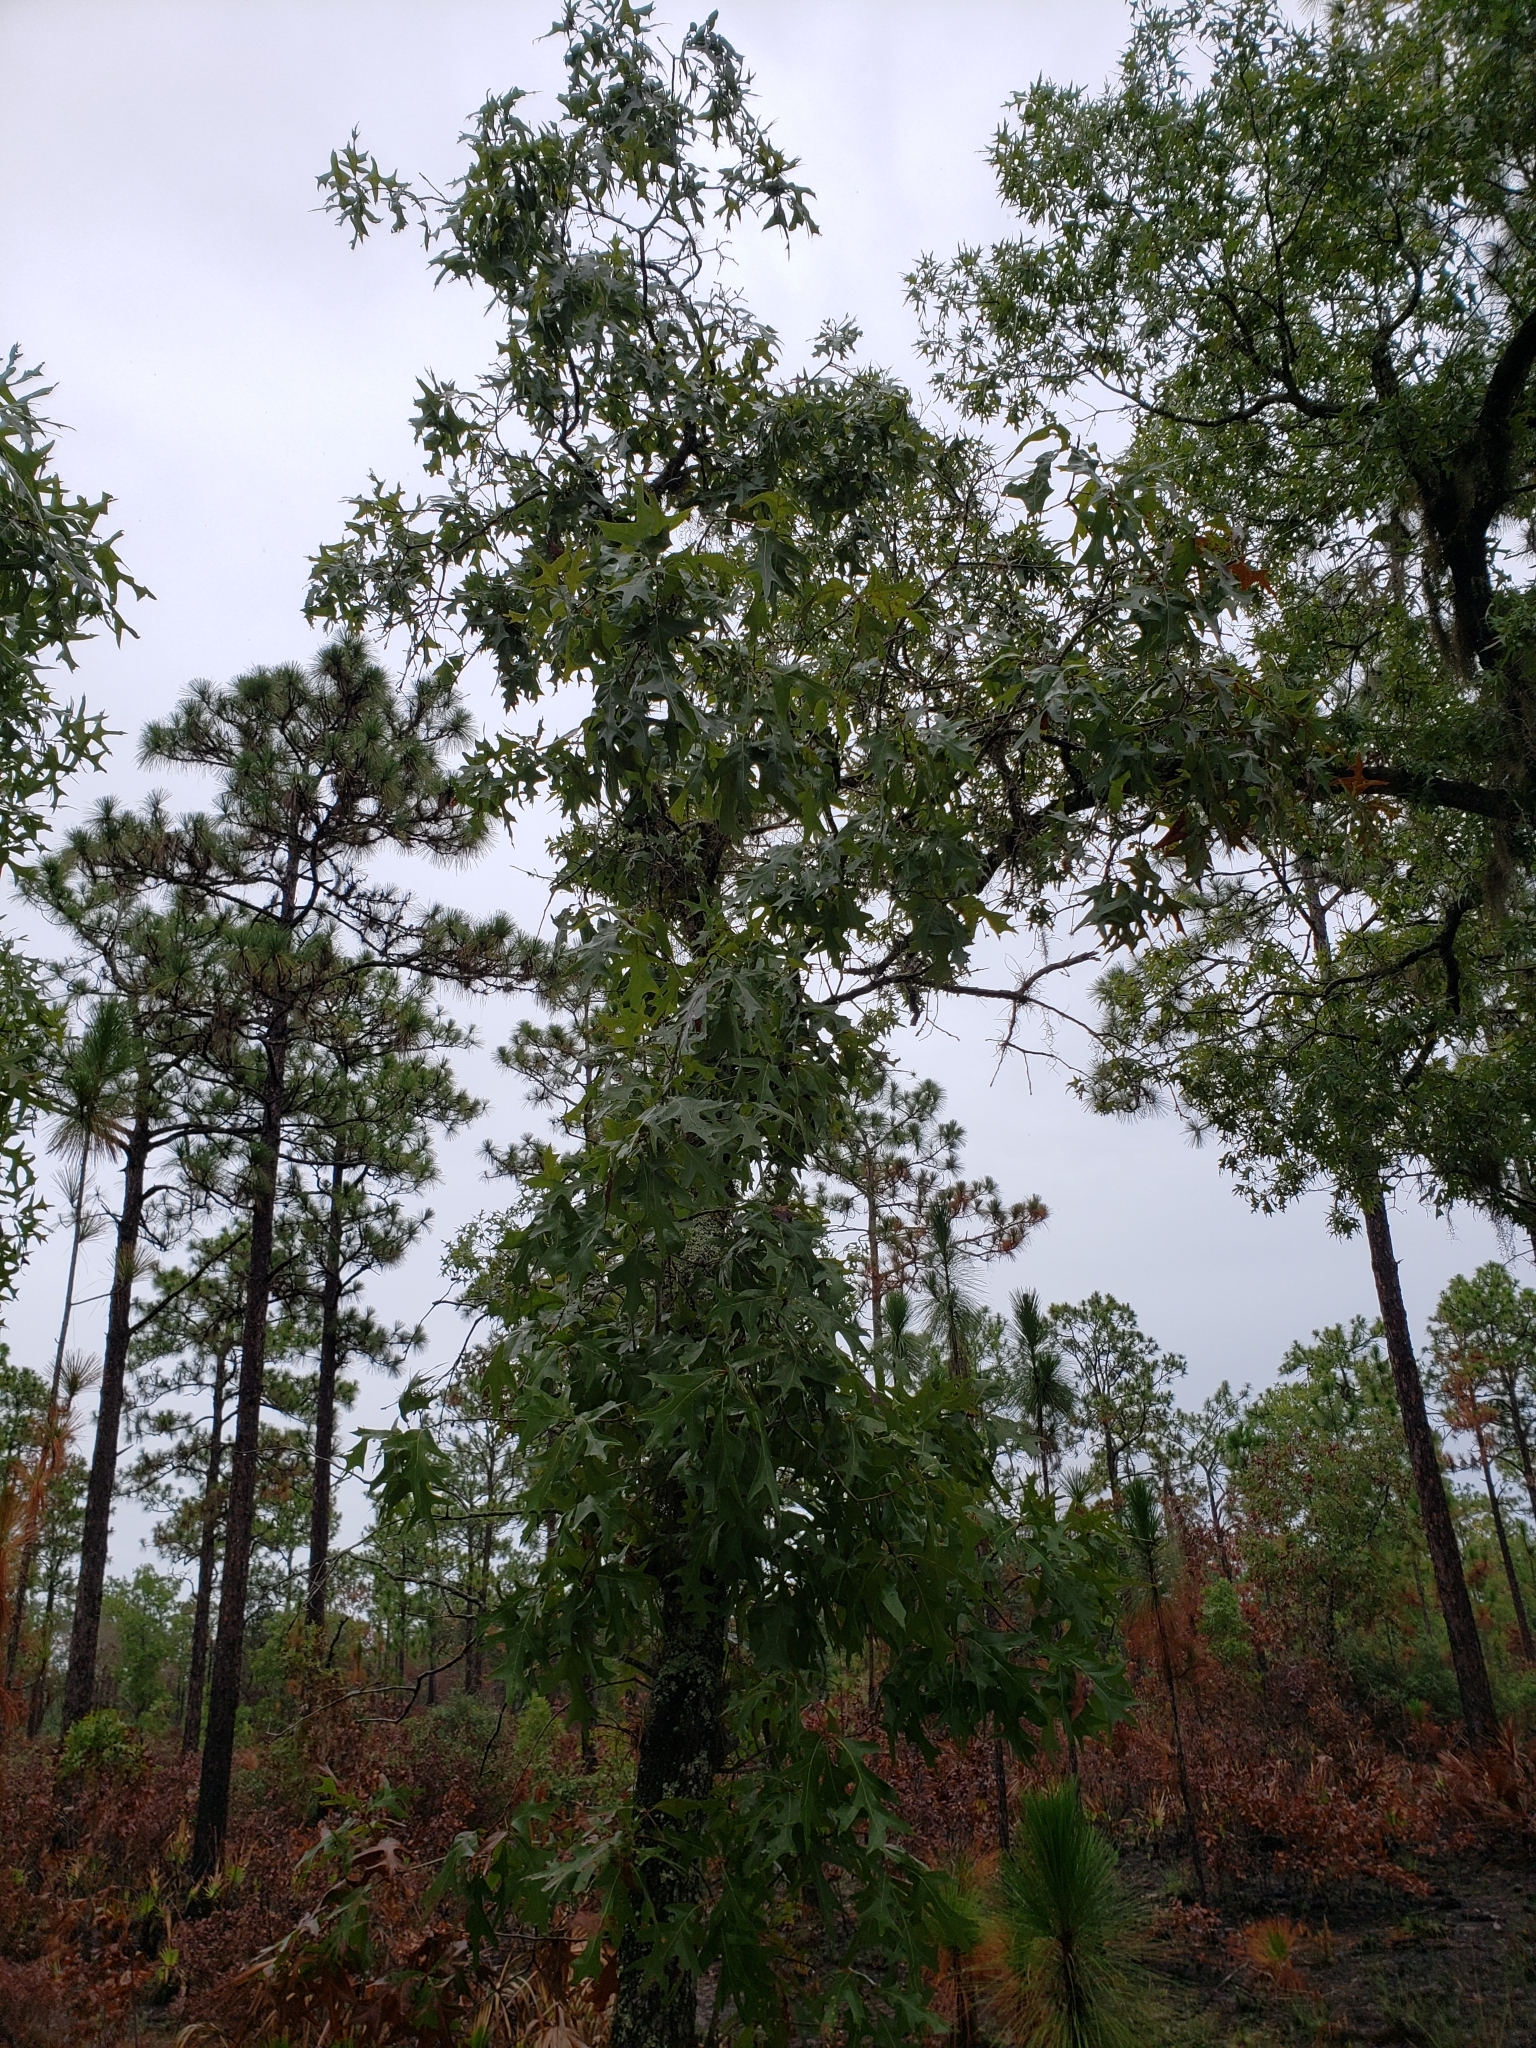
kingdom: Plantae
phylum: Tracheophyta
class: Magnoliopsida
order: Fagales
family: Fagaceae
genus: Quercus
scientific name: Quercus laevis
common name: Turkey oak
